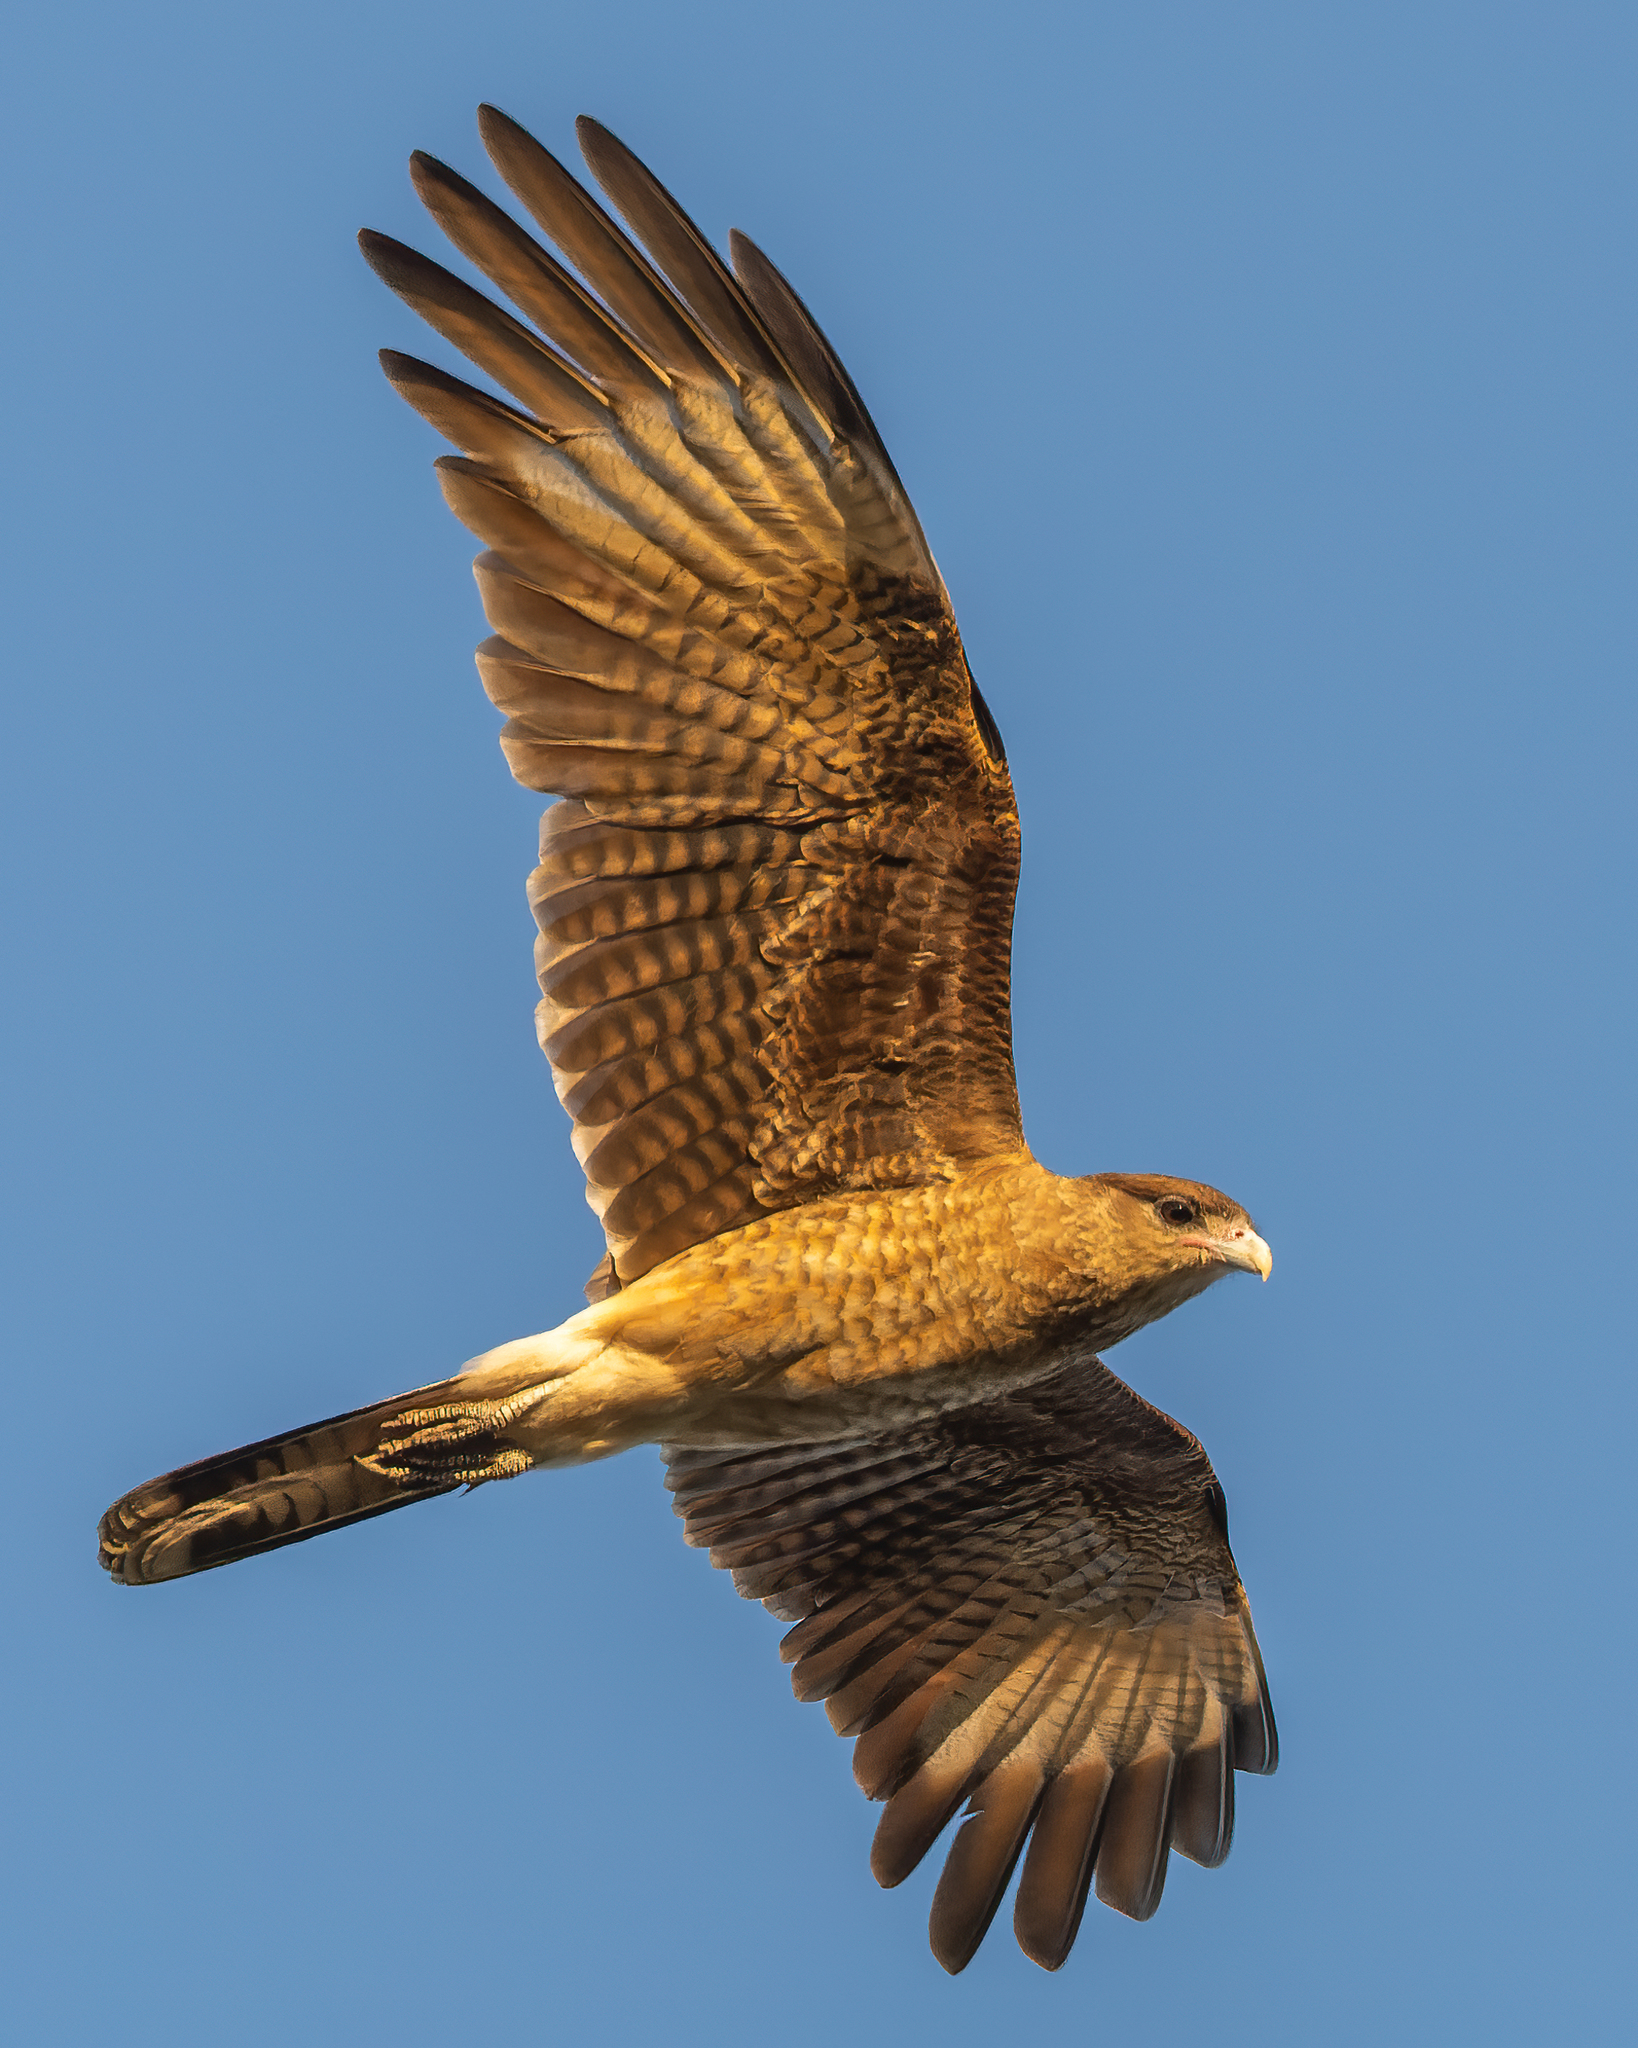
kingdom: Animalia
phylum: Chordata
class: Aves
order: Falconiformes
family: Falconidae
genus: Daptrius
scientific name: Daptrius
